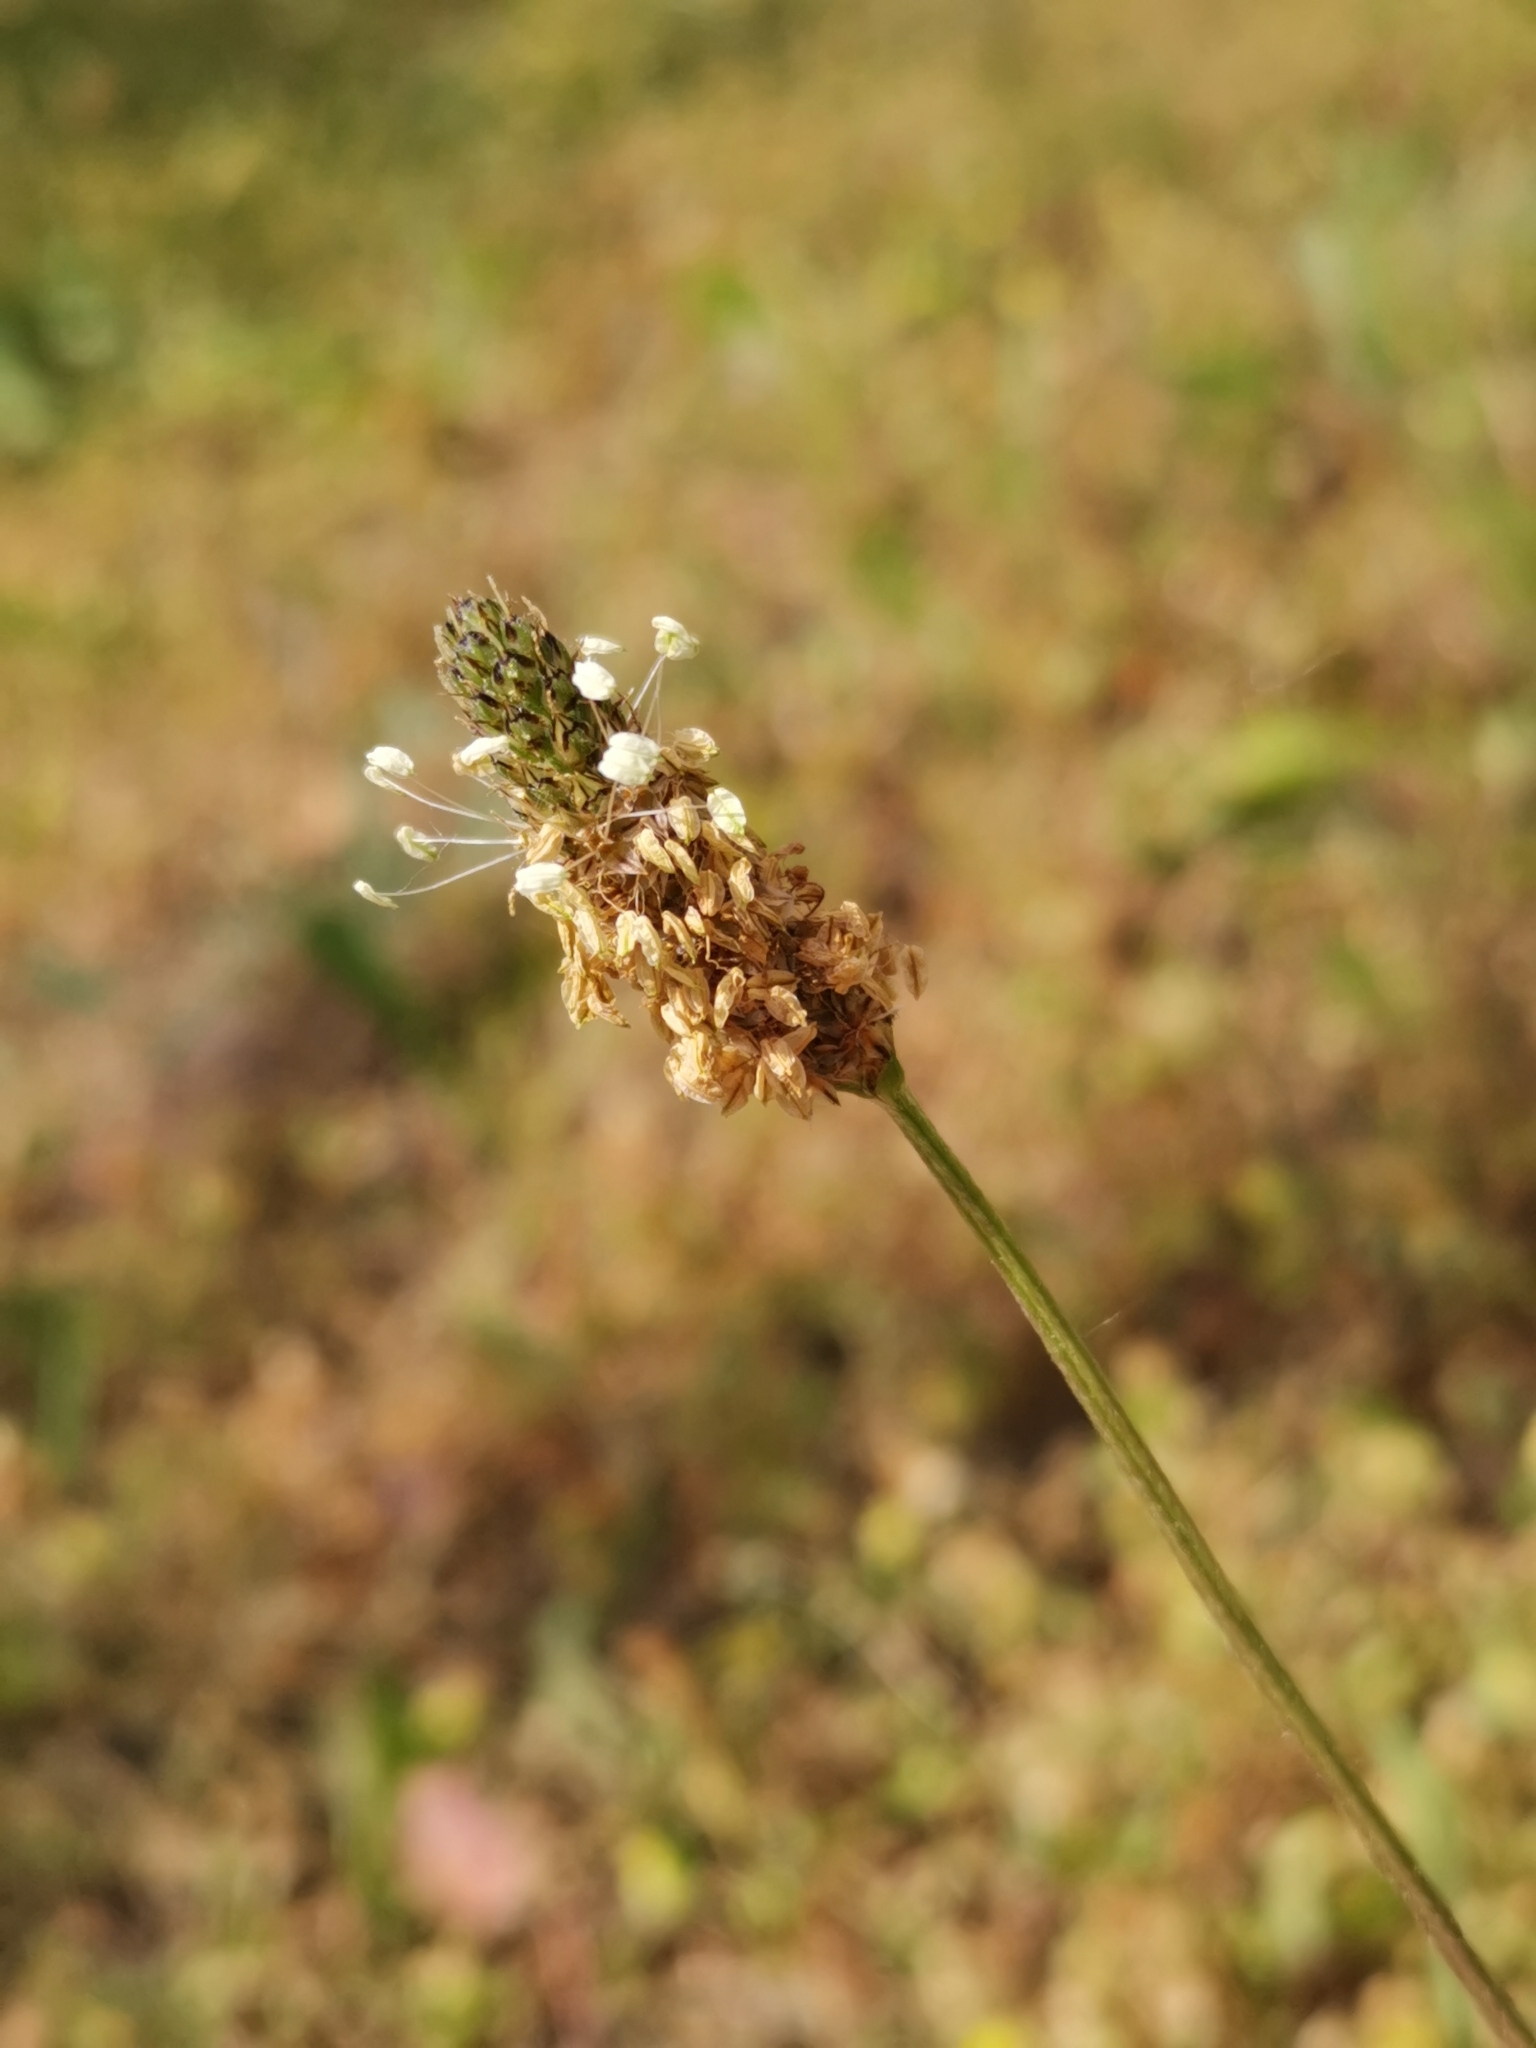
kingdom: Plantae
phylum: Tracheophyta
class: Magnoliopsida
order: Lamiales
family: Plantaginaceae
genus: Plantago
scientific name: Plantago lanceolata
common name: Ribwort plantain
